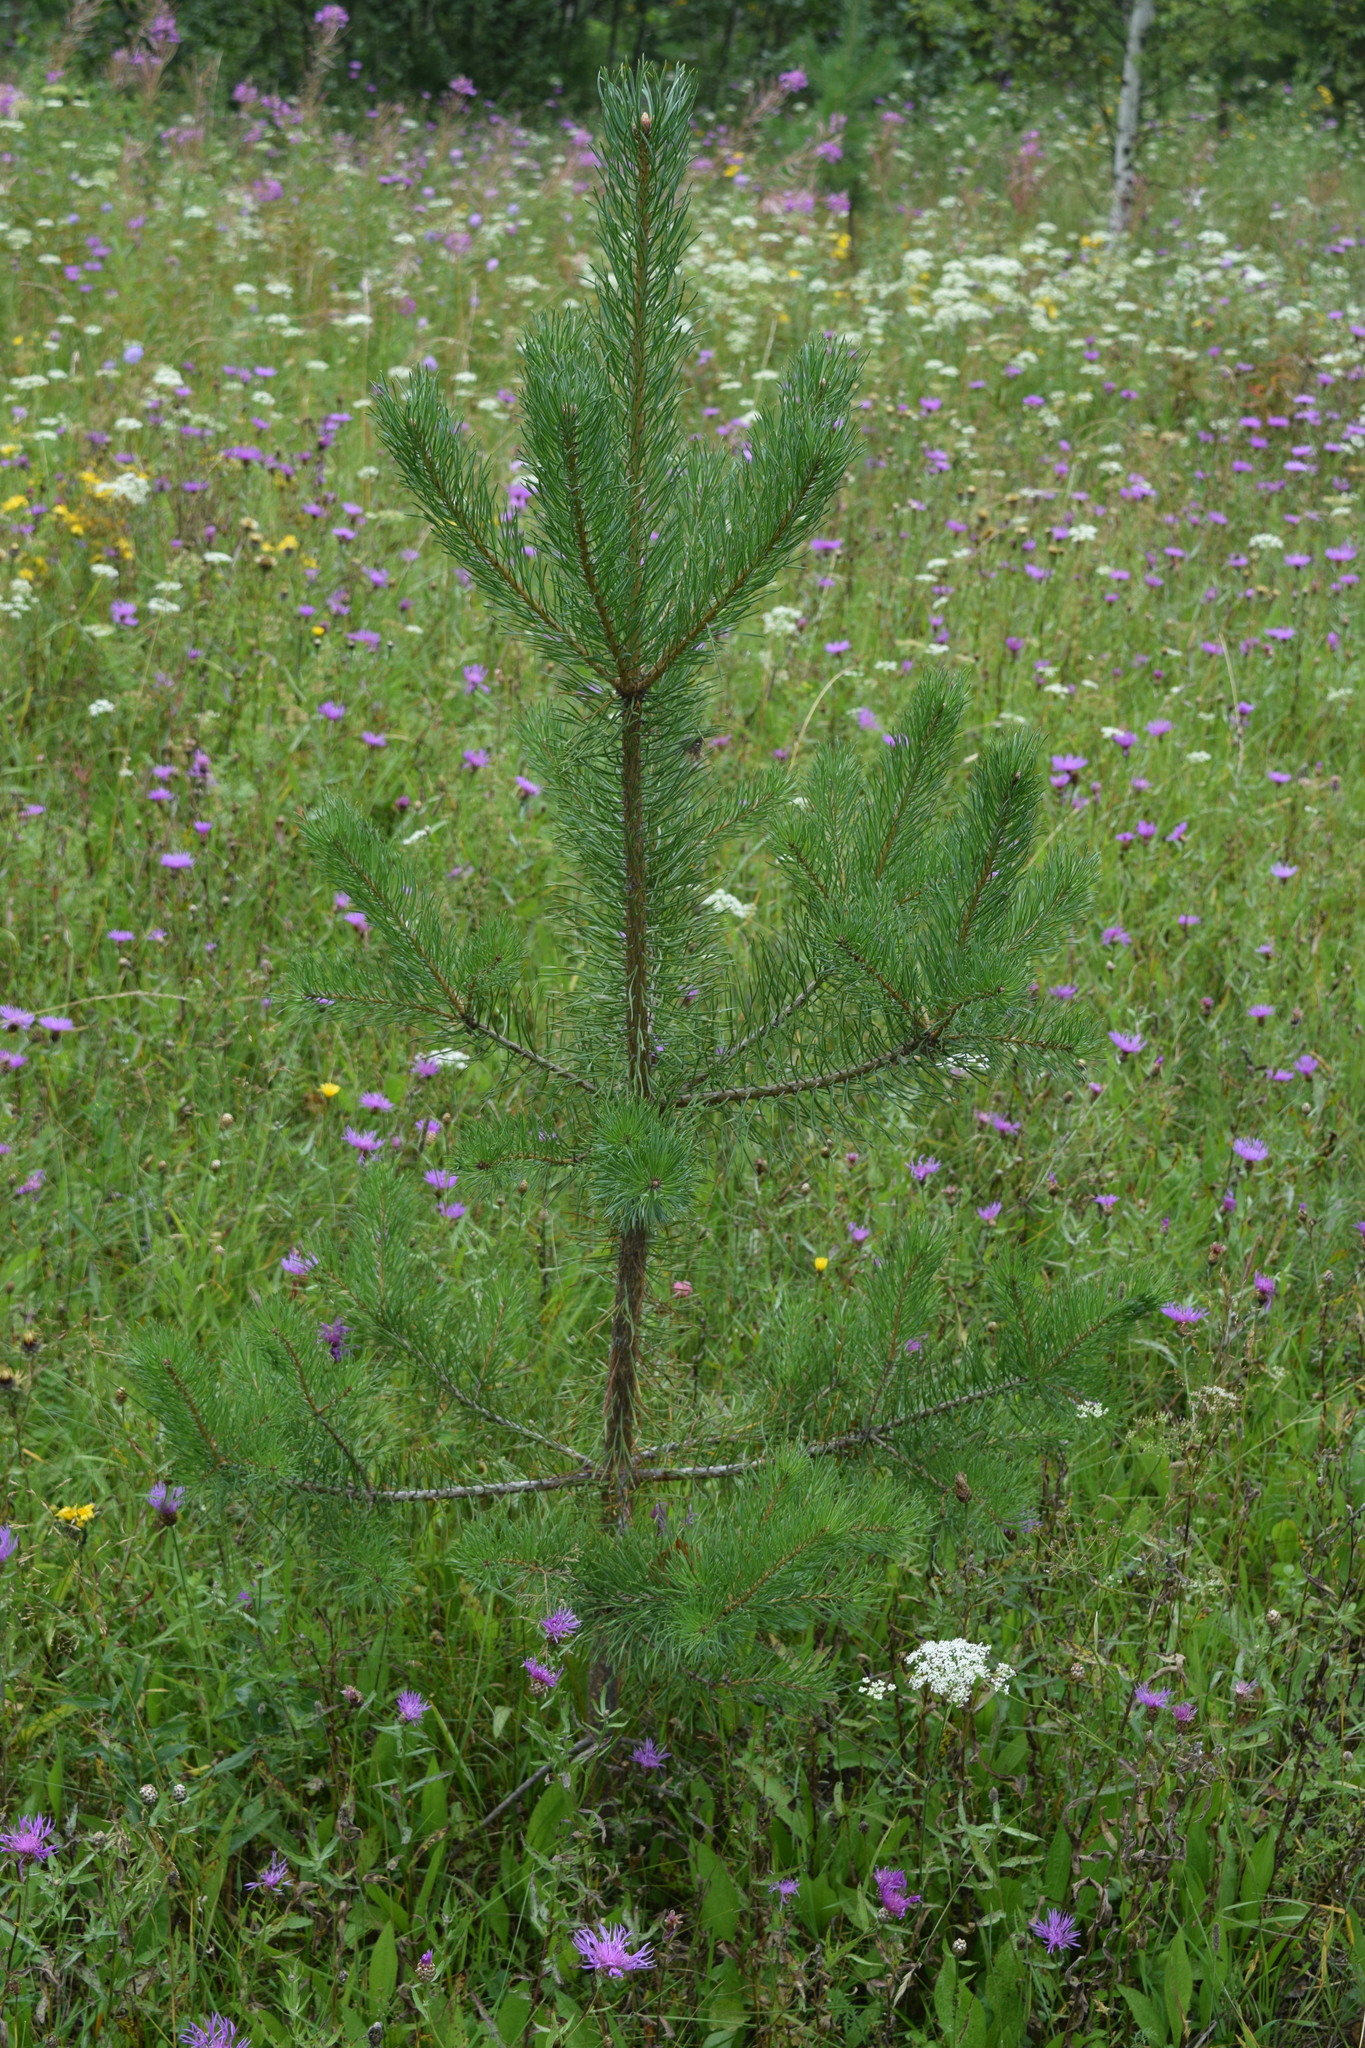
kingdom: Plantae
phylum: Tracheophyta
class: Pinopsida
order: Pinales
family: Pinaceae
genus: Pinus
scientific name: Pinus sylvestris
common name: Scots pine
